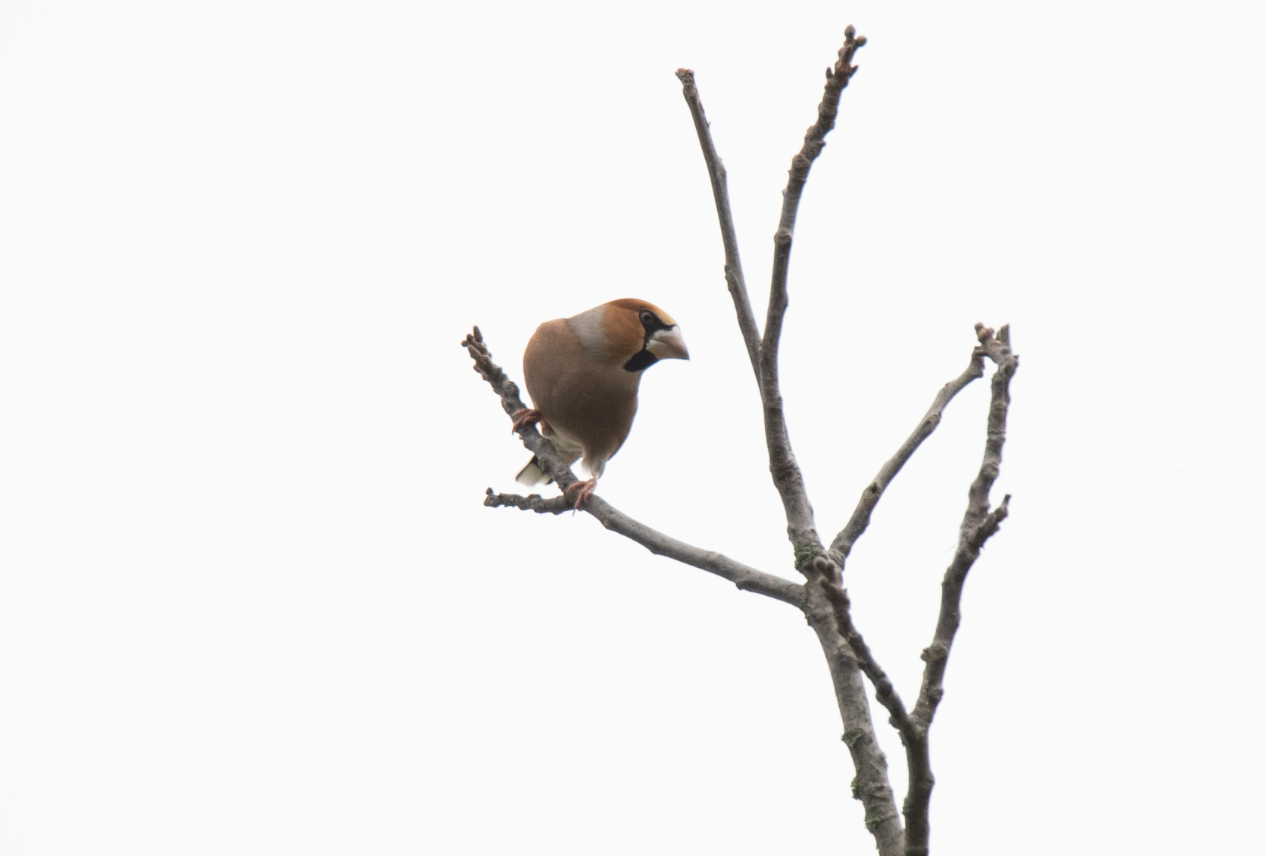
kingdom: Animalia
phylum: Chordata
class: Aves
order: Passeriformes
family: Fringillidae
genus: Coccothraustes
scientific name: Coccothraustes coccothraustes
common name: Hawfinch
